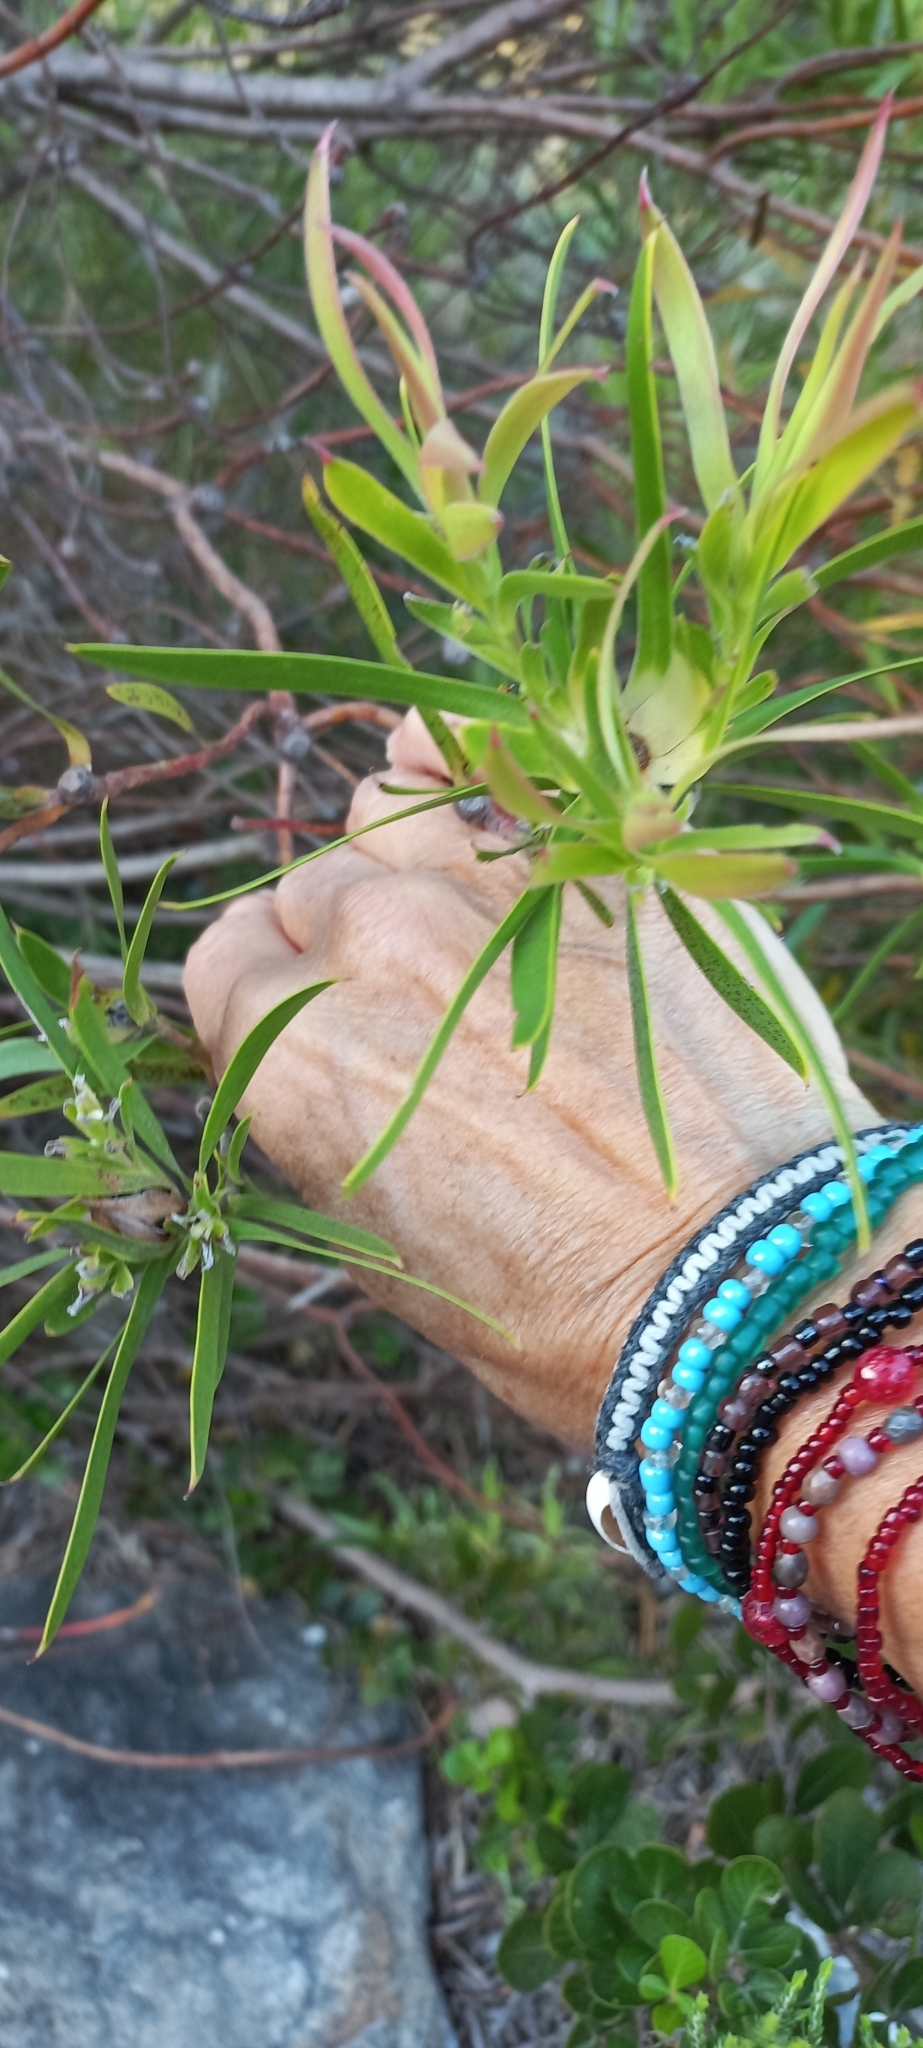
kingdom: Plantae
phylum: Tracheophyta
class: Magnoliopsida
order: Proteales
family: Proteaceae
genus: Leucadendron
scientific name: Leucadendron coniferum
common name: Dune conebush
